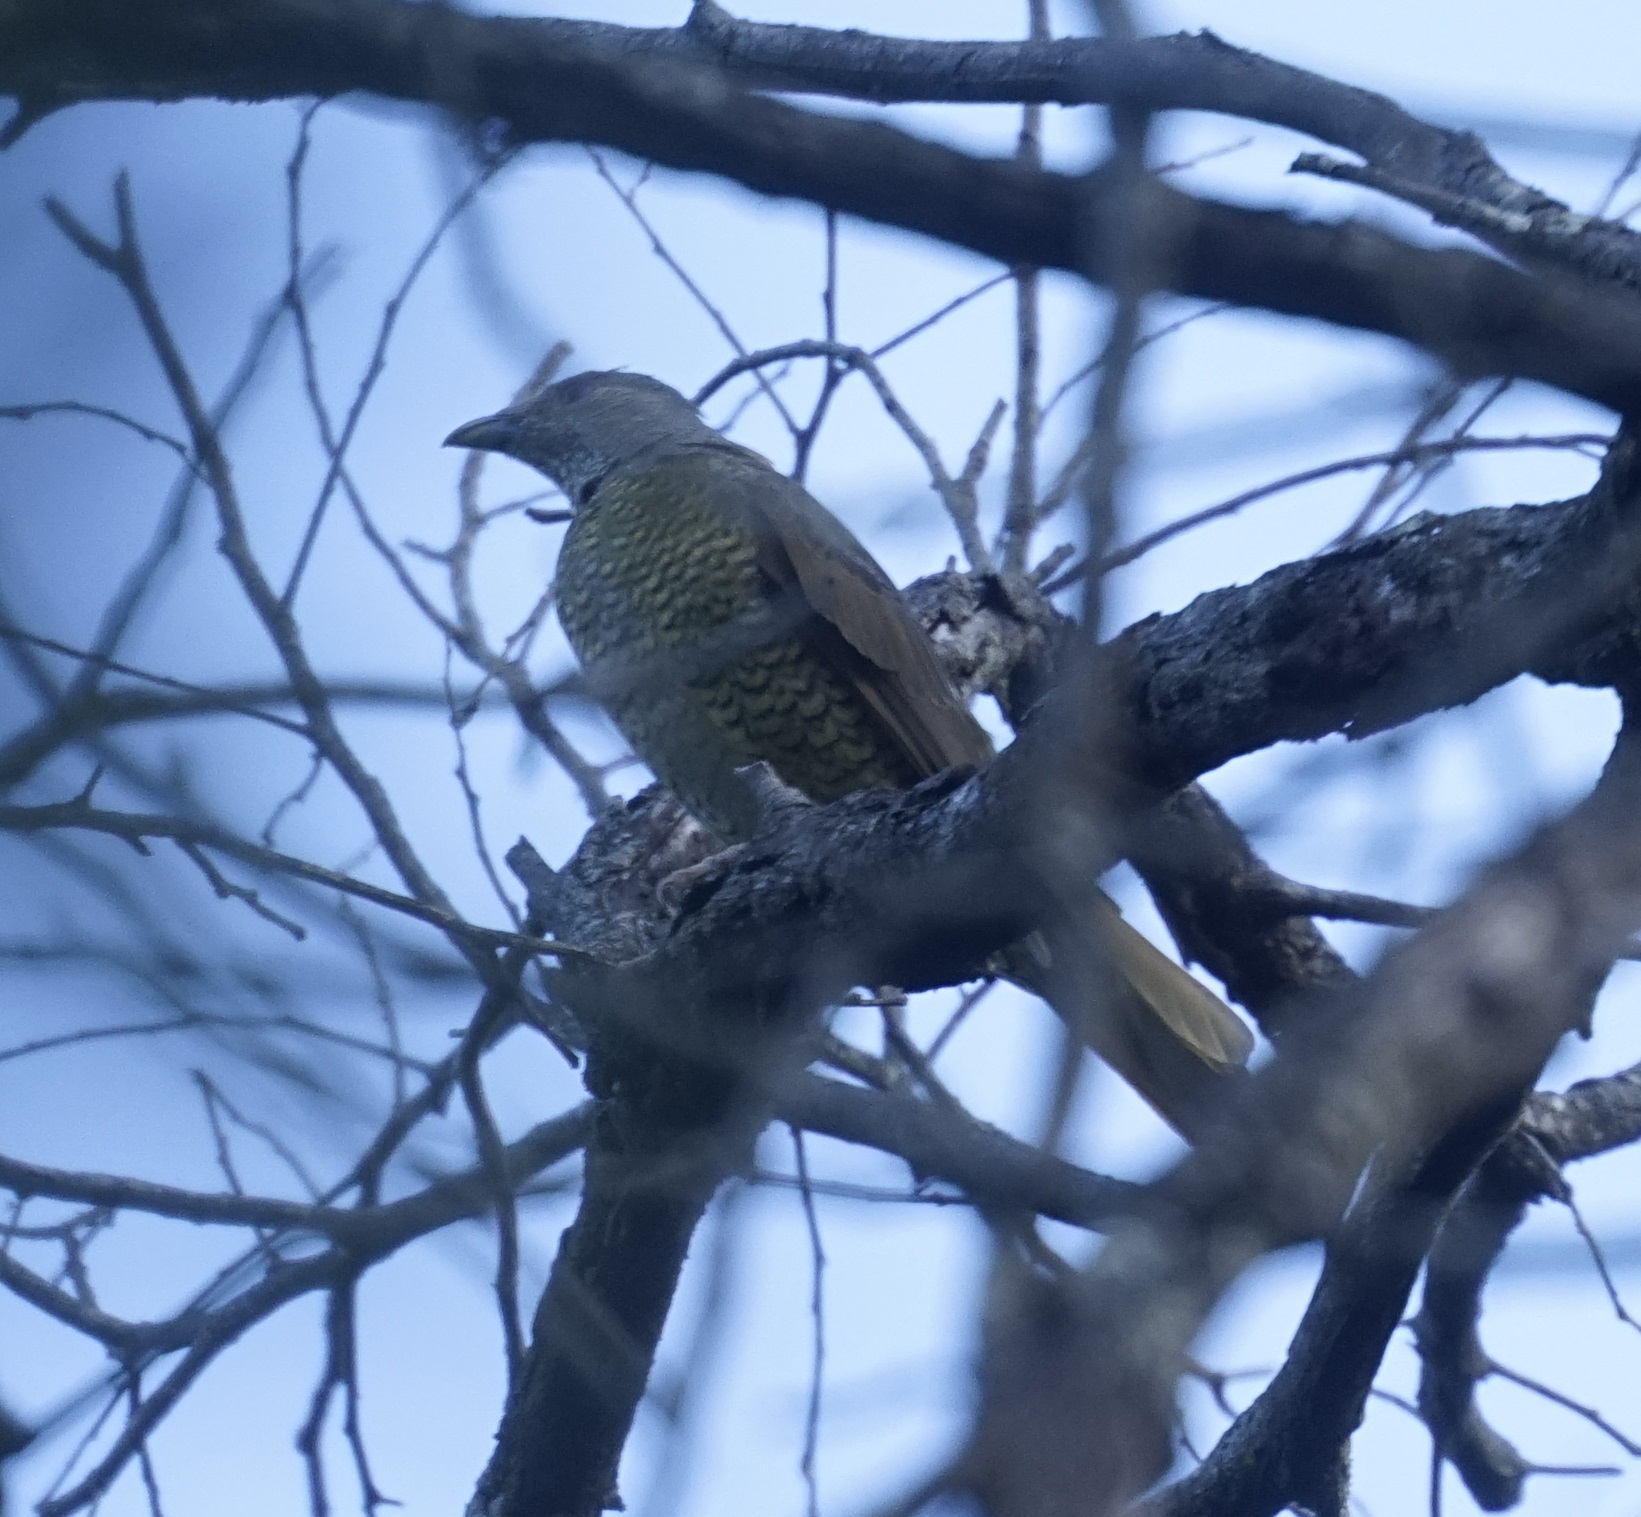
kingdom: Animalia
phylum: Chordata
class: Aves
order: Passeriformes
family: Ptilonorhynchidae
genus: Ptilonorhynchus
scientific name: Ptilonorhynchus violaceus
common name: Satin bowerbird
